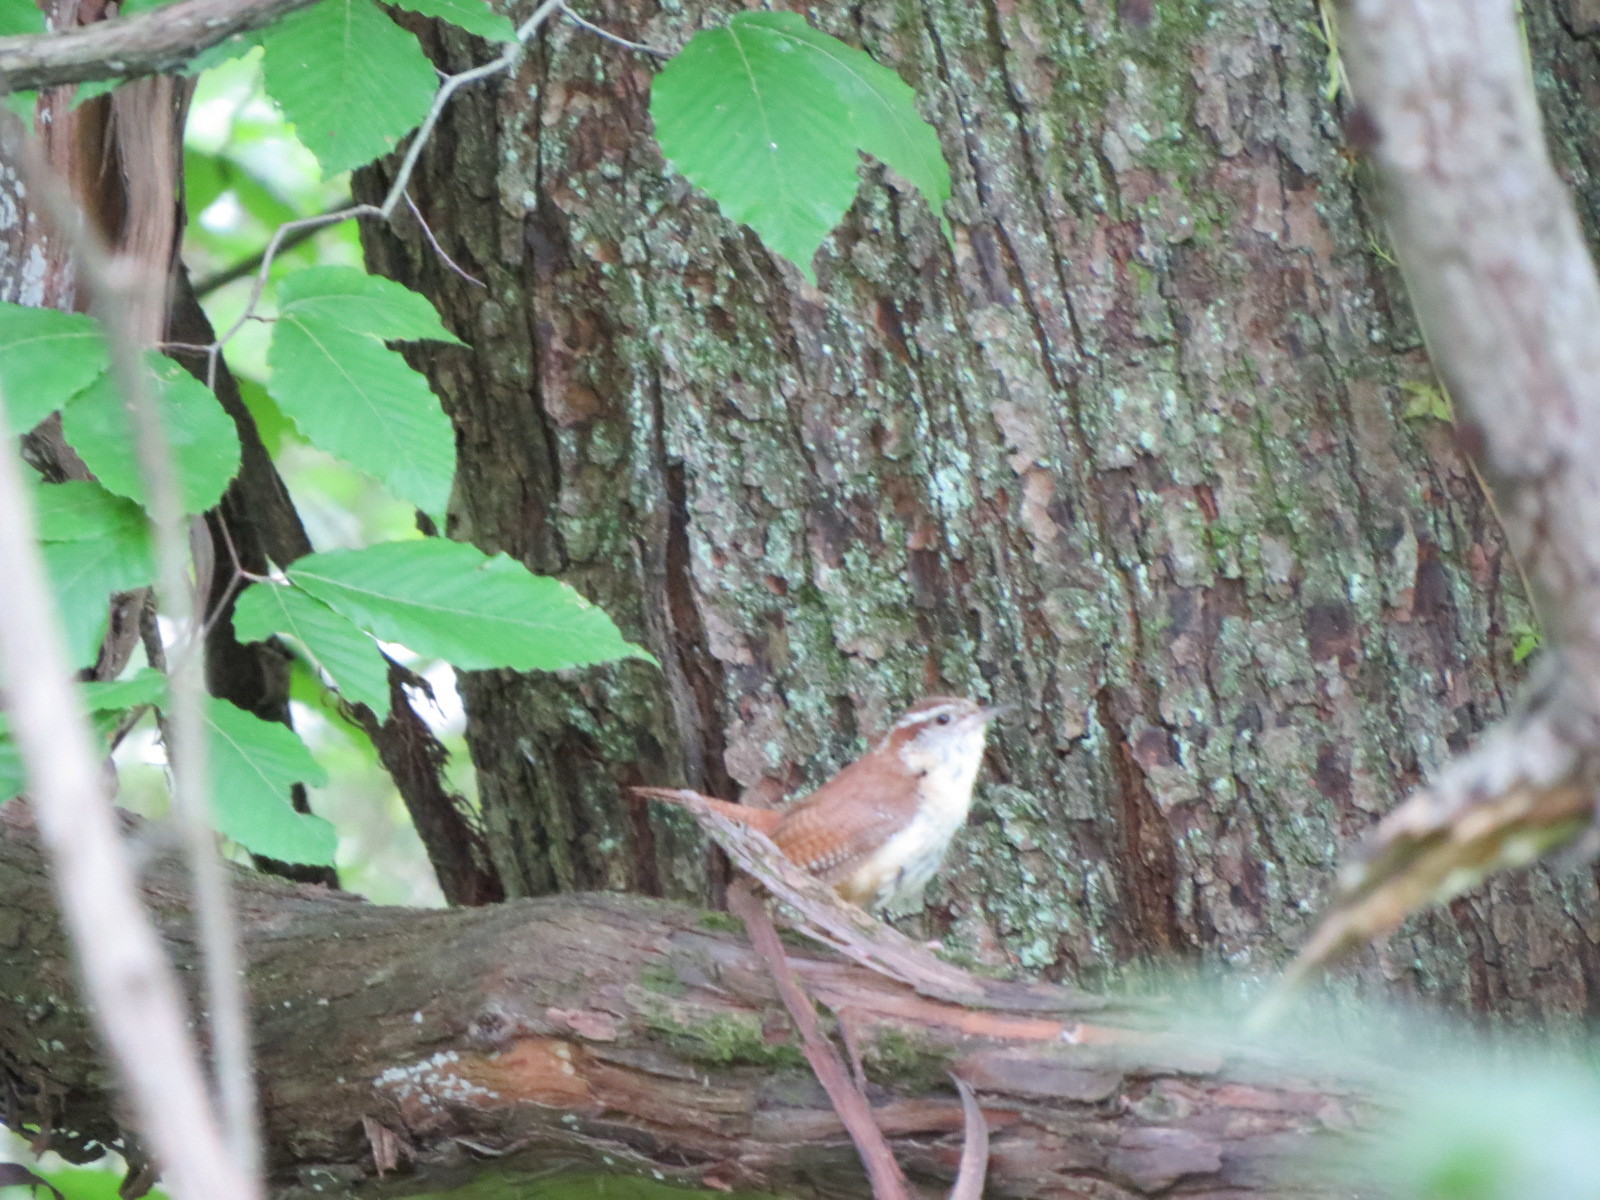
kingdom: Animalia
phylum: Chordata
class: Aves
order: Passeriformes
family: Troglodytidae
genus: Thryothorus
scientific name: Thryothorus ludovicianus
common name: Carolina wren
